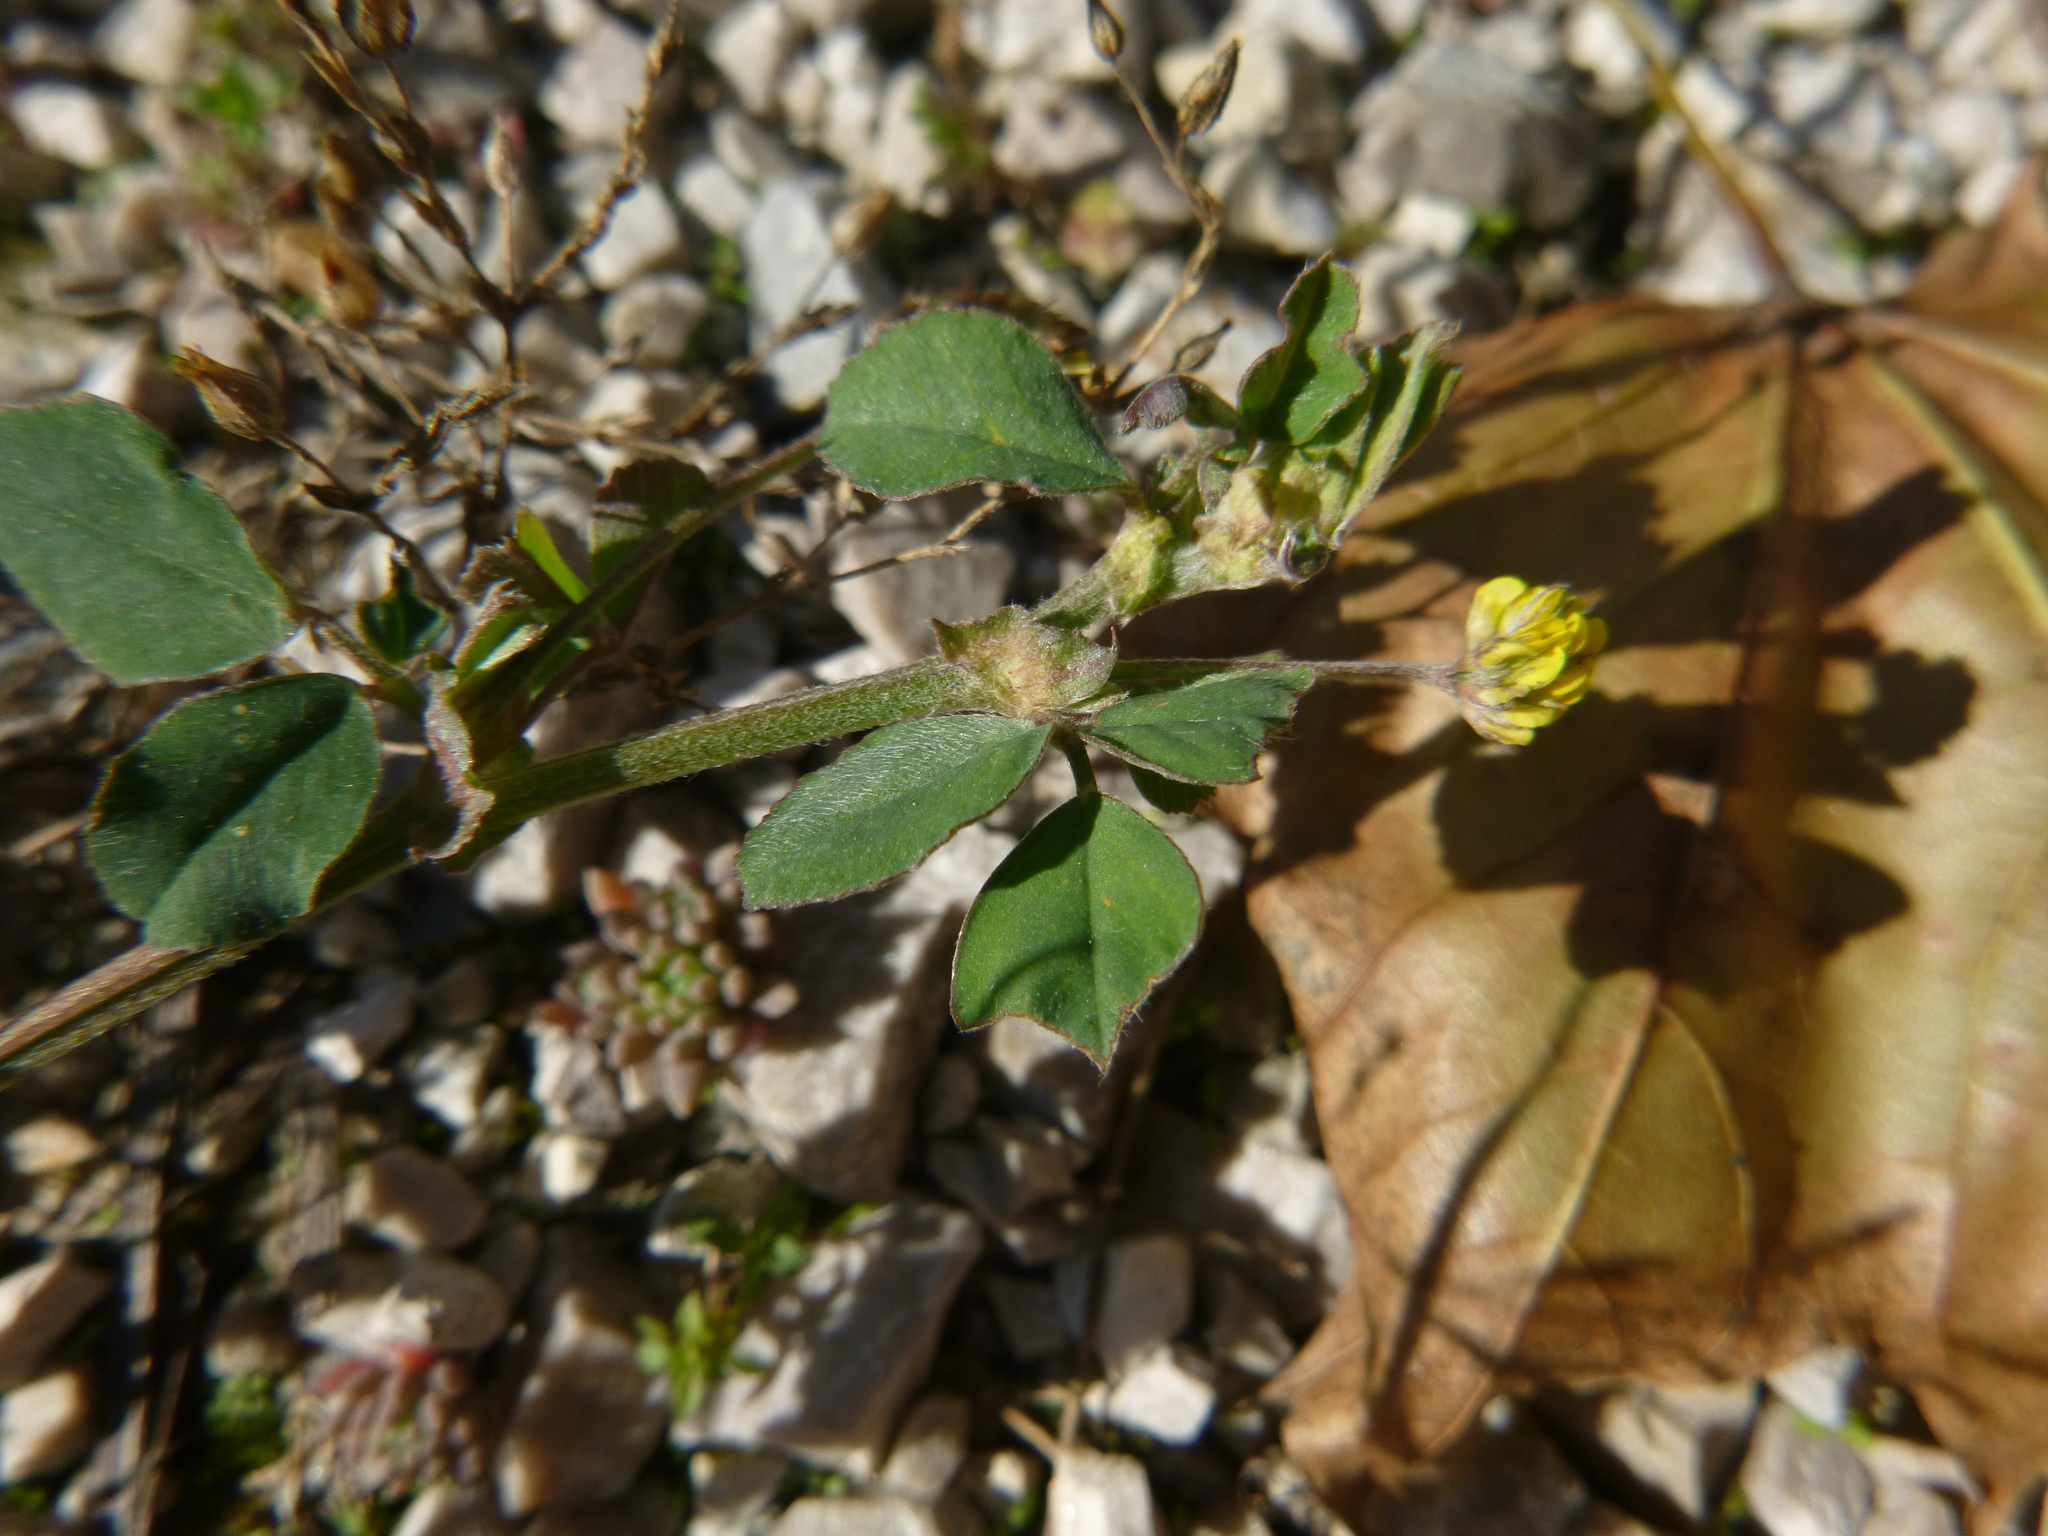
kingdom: Plantae
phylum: Tracheophyta
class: Magnoliopsida
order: Fabales
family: Fabaceae
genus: Medicago
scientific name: Medicago lupulina
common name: Black medick
